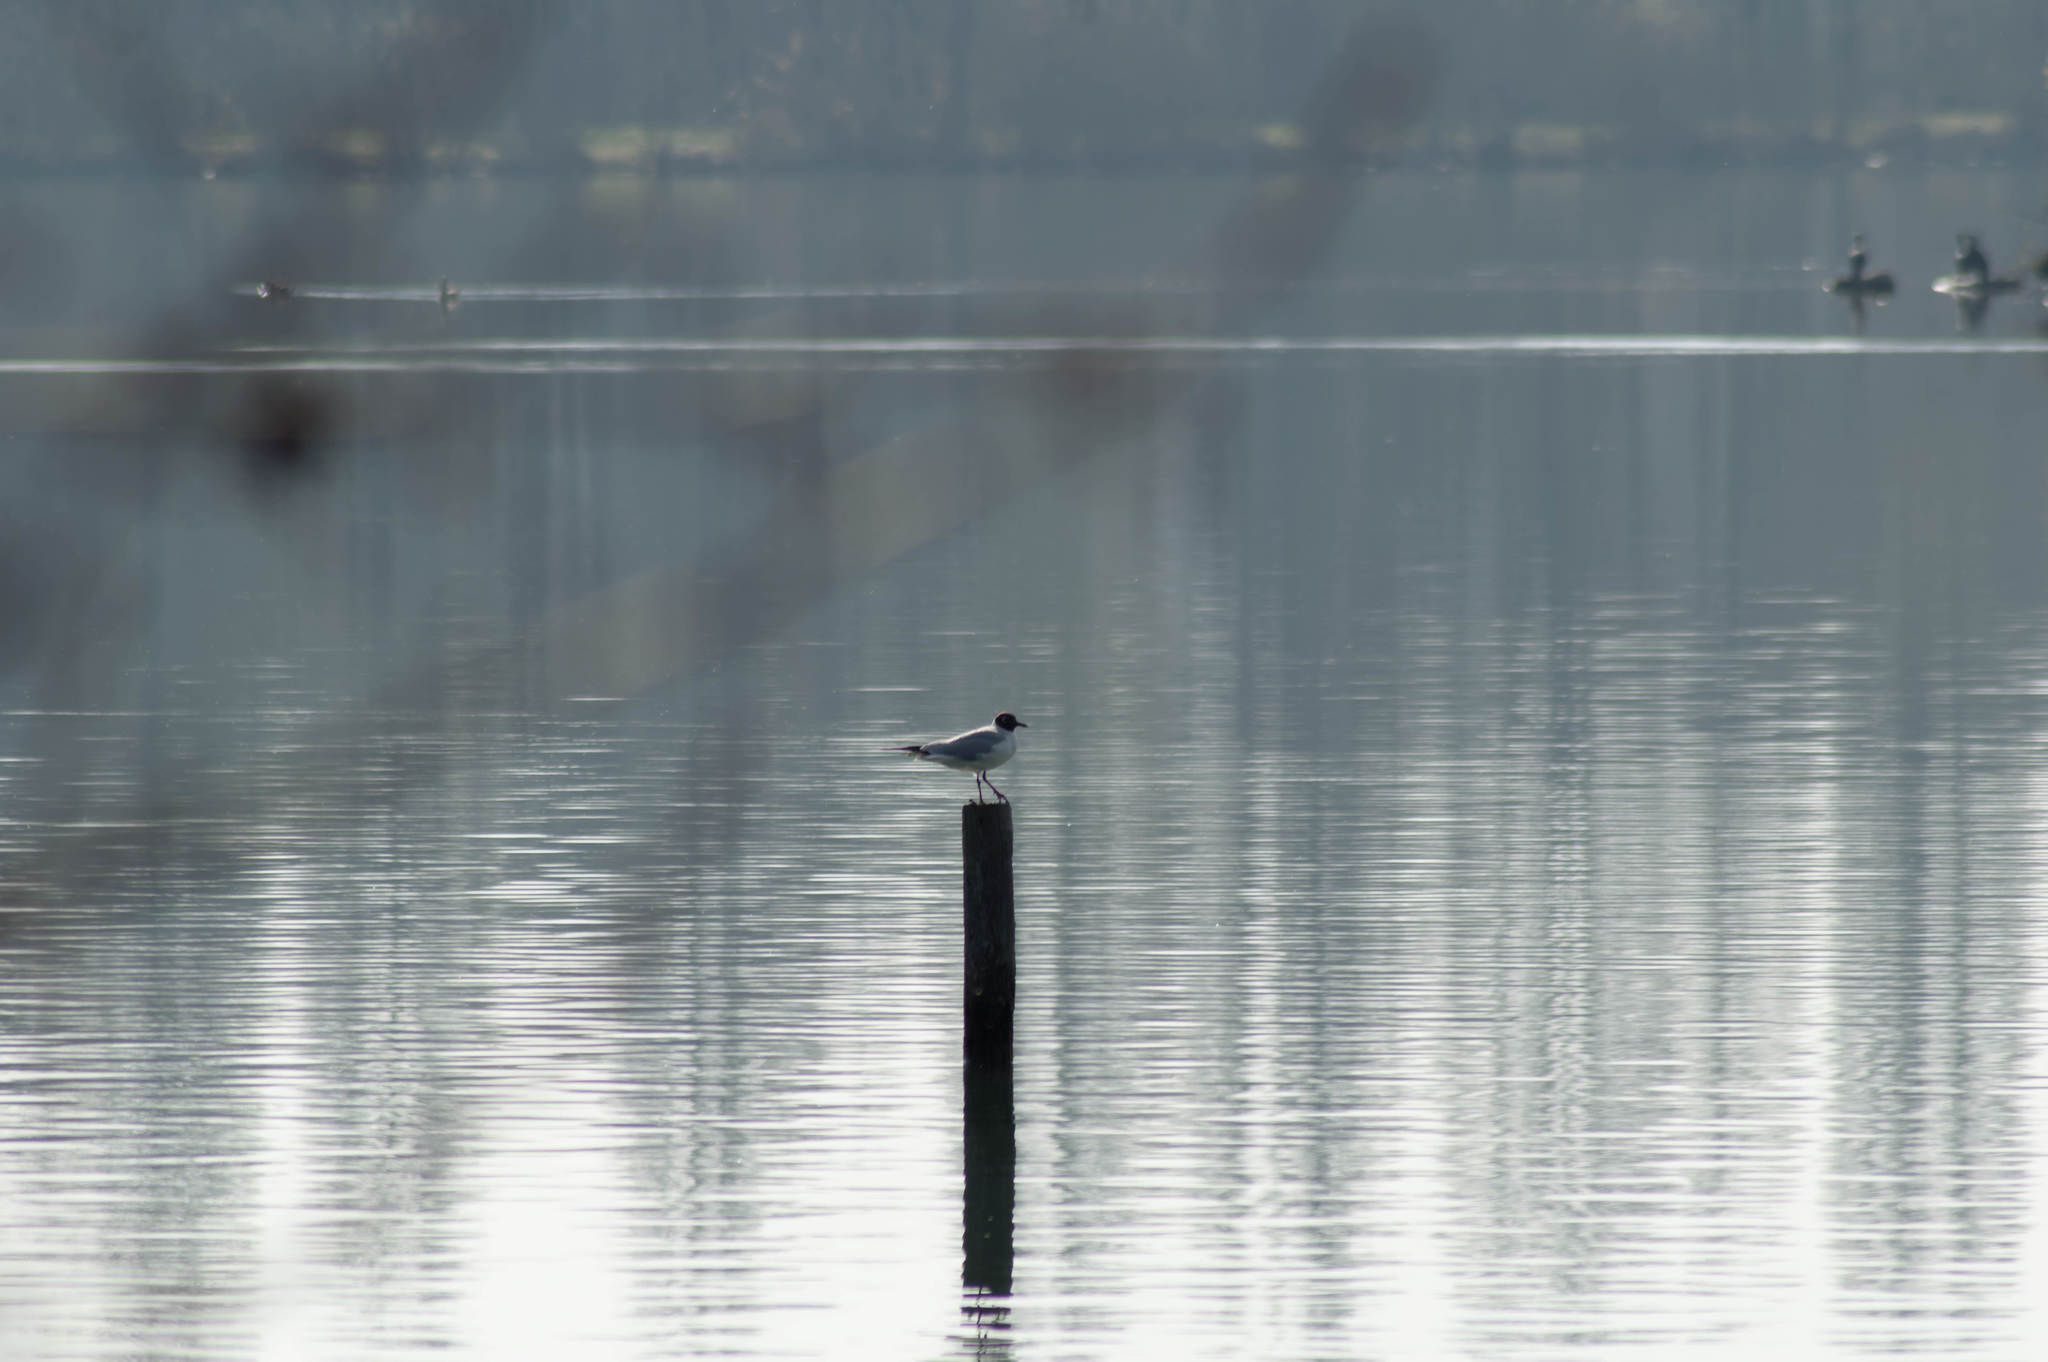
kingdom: Animalia
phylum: Chordata
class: Aves
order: Charadriiformes
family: Laridae
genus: Chroicocephalus
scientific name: Chroicocephalus ridibundus
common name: Black-headed gull
